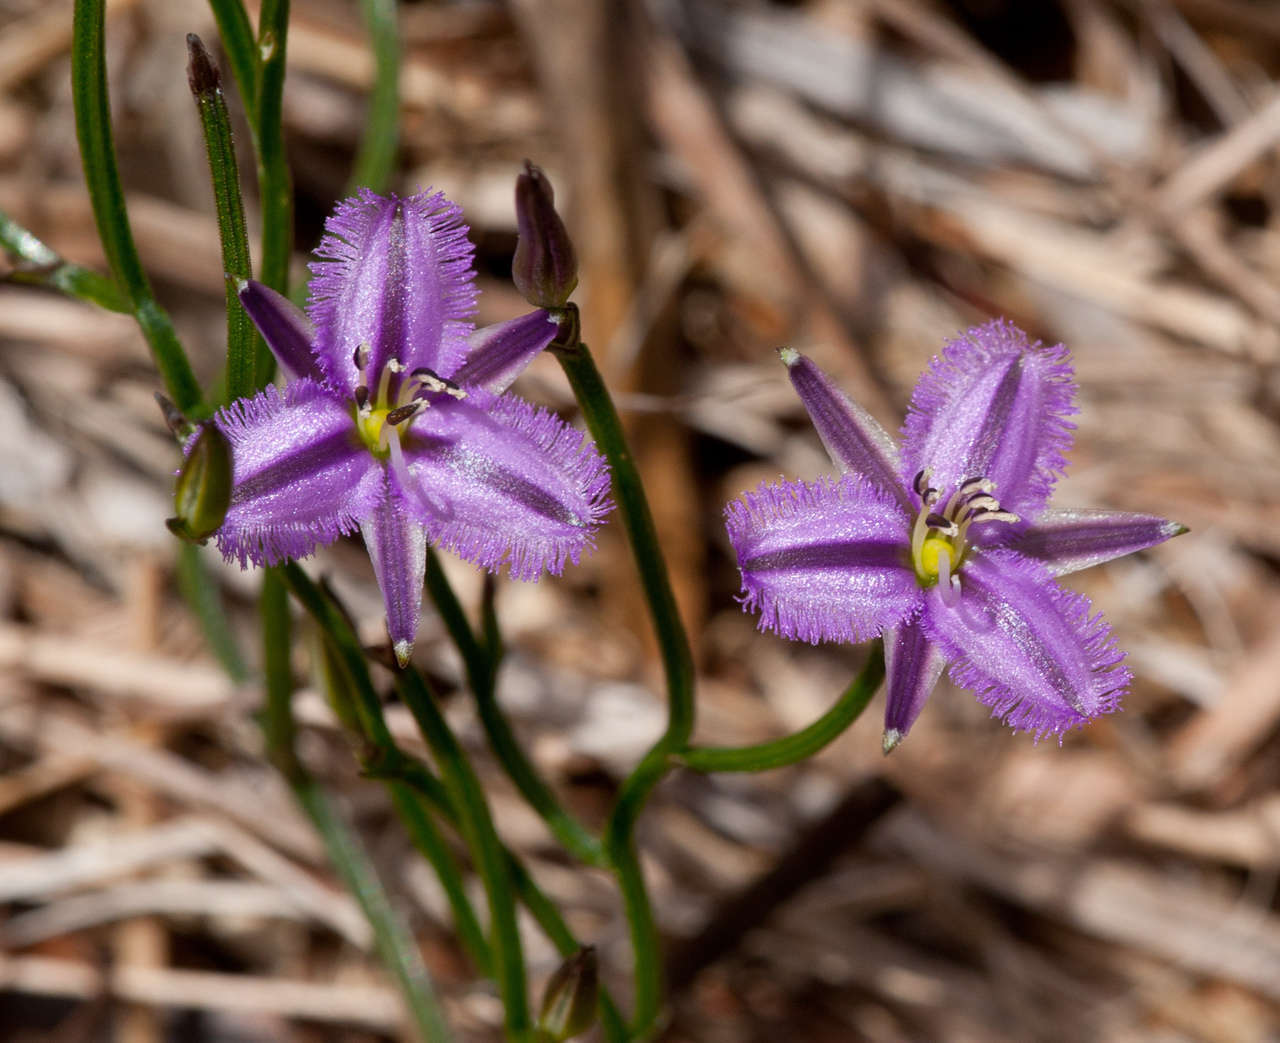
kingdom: Plantae
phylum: Tracheophyta
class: Liliopsida
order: Asparagales
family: Asparagaceae
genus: Thysanotus
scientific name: Thysanotus patersonii
